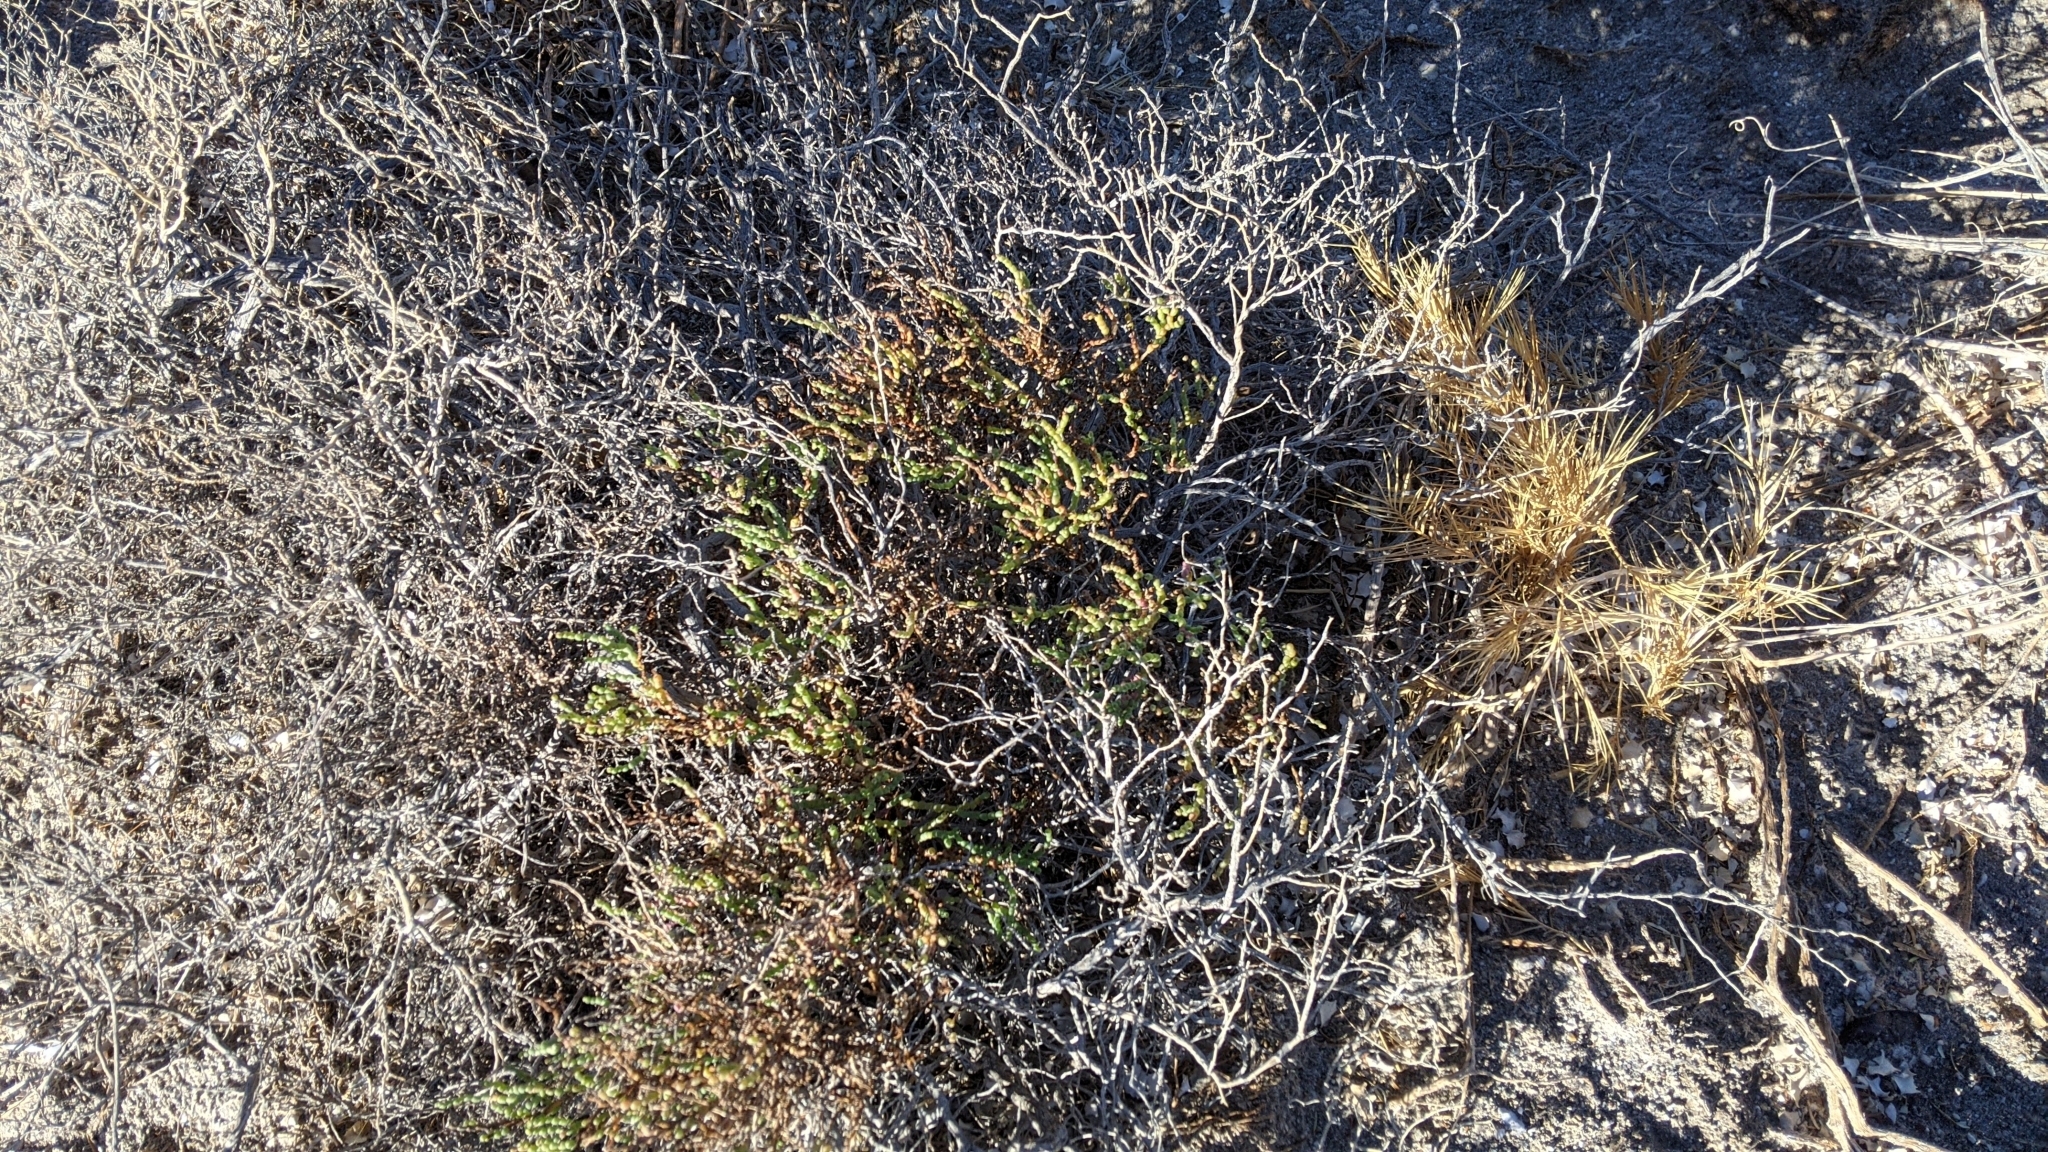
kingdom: Plantae
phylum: Tracheophyta
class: Magnoliopsida
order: Caryophyllales
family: Amaranthaceae
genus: Allenrolfea
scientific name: Allenrolfea occidentalis
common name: Iodine-bush
